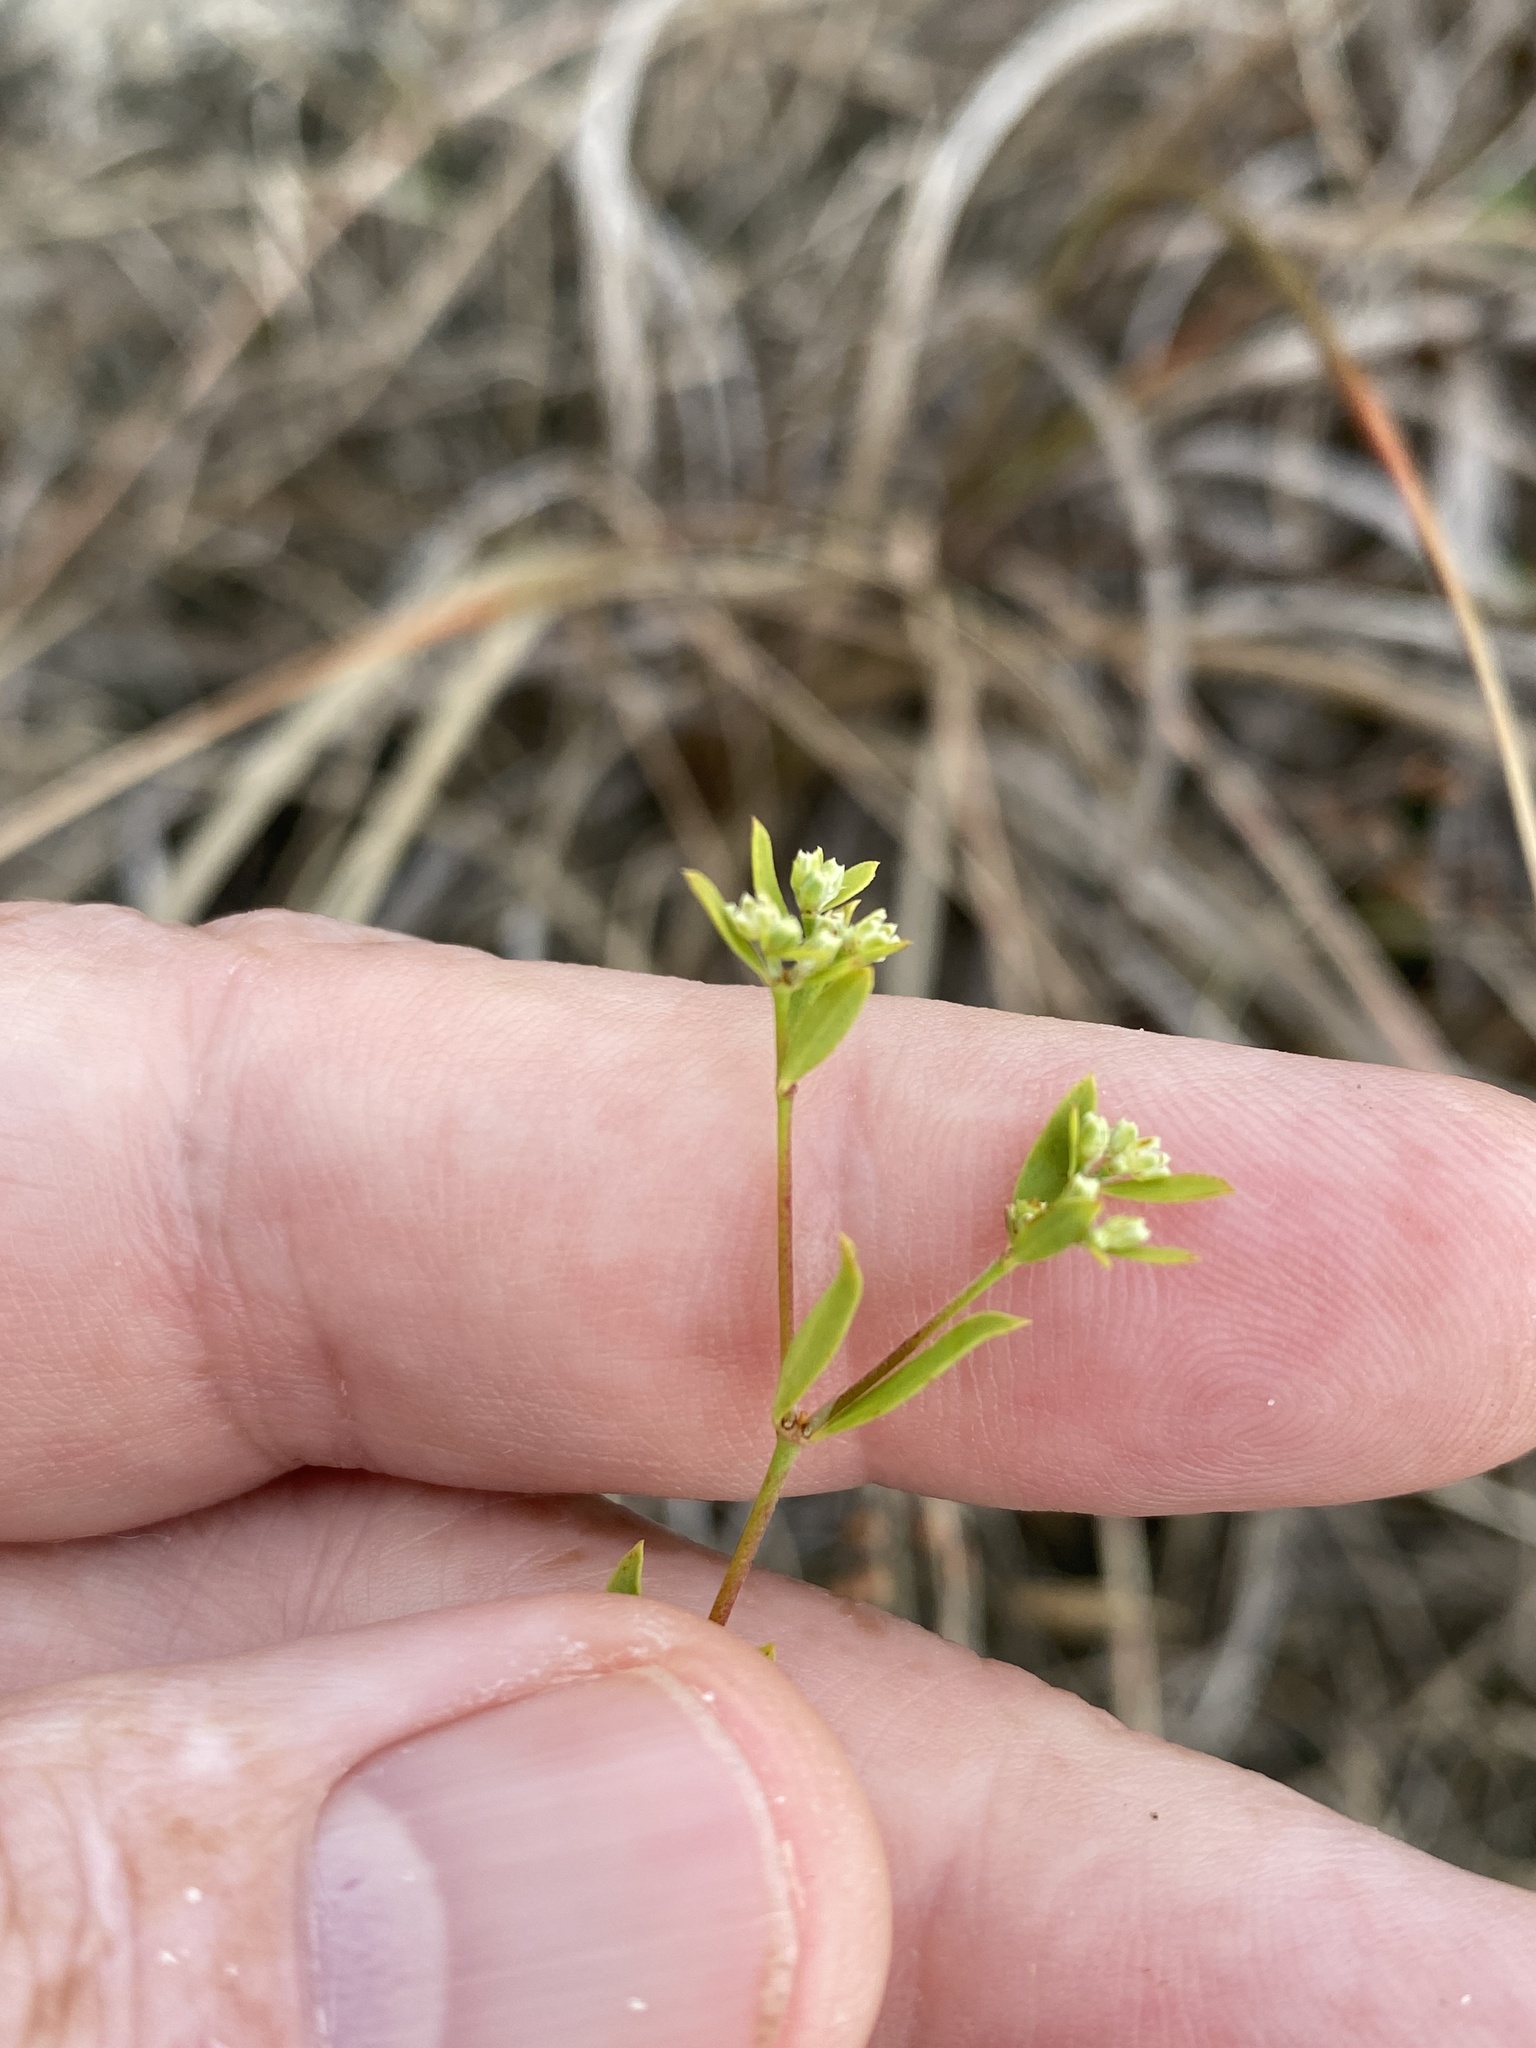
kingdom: Plantae
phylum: Tracheophyta
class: Magnoliopsida
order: Caryophyllales
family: Caryophyllaceae
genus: Paronychia
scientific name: Paronychia baldwinii
